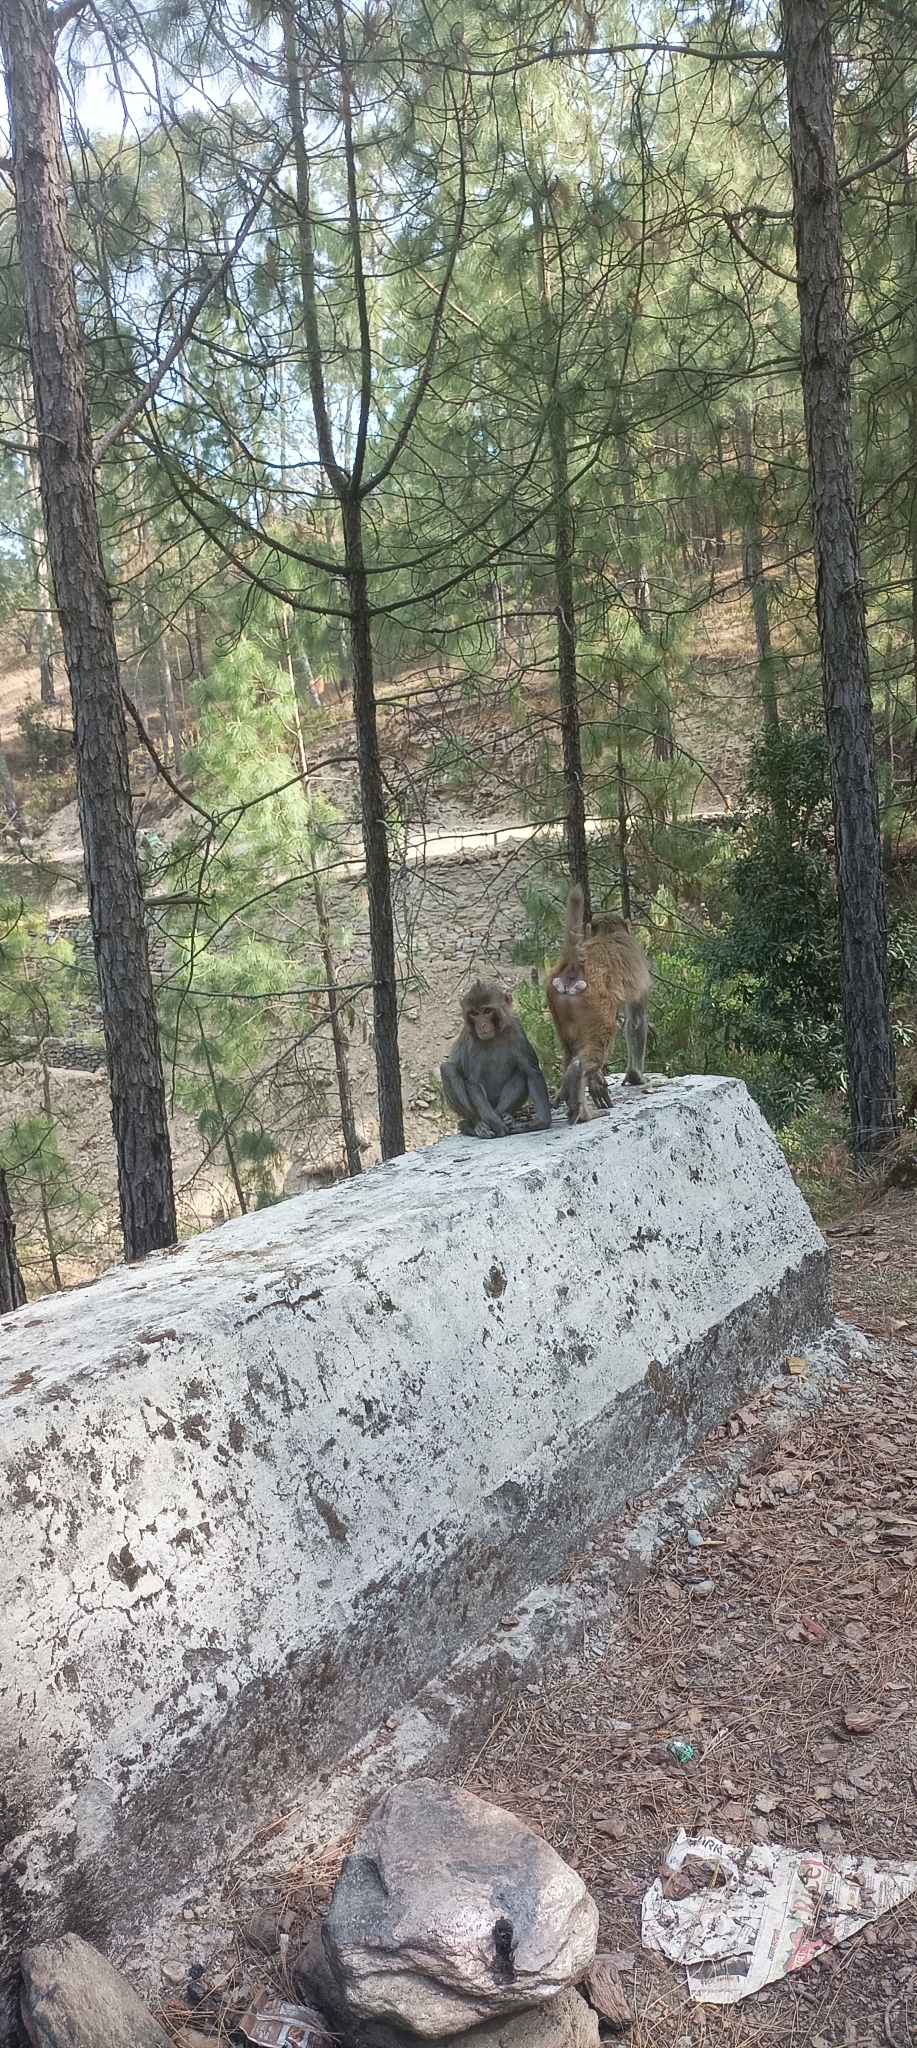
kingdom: Animalia
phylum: Chordata
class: Mammalia
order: Primates
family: Cercopithecidae
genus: Macaca
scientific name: Macaca mulatta
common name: Rhesus monkey
